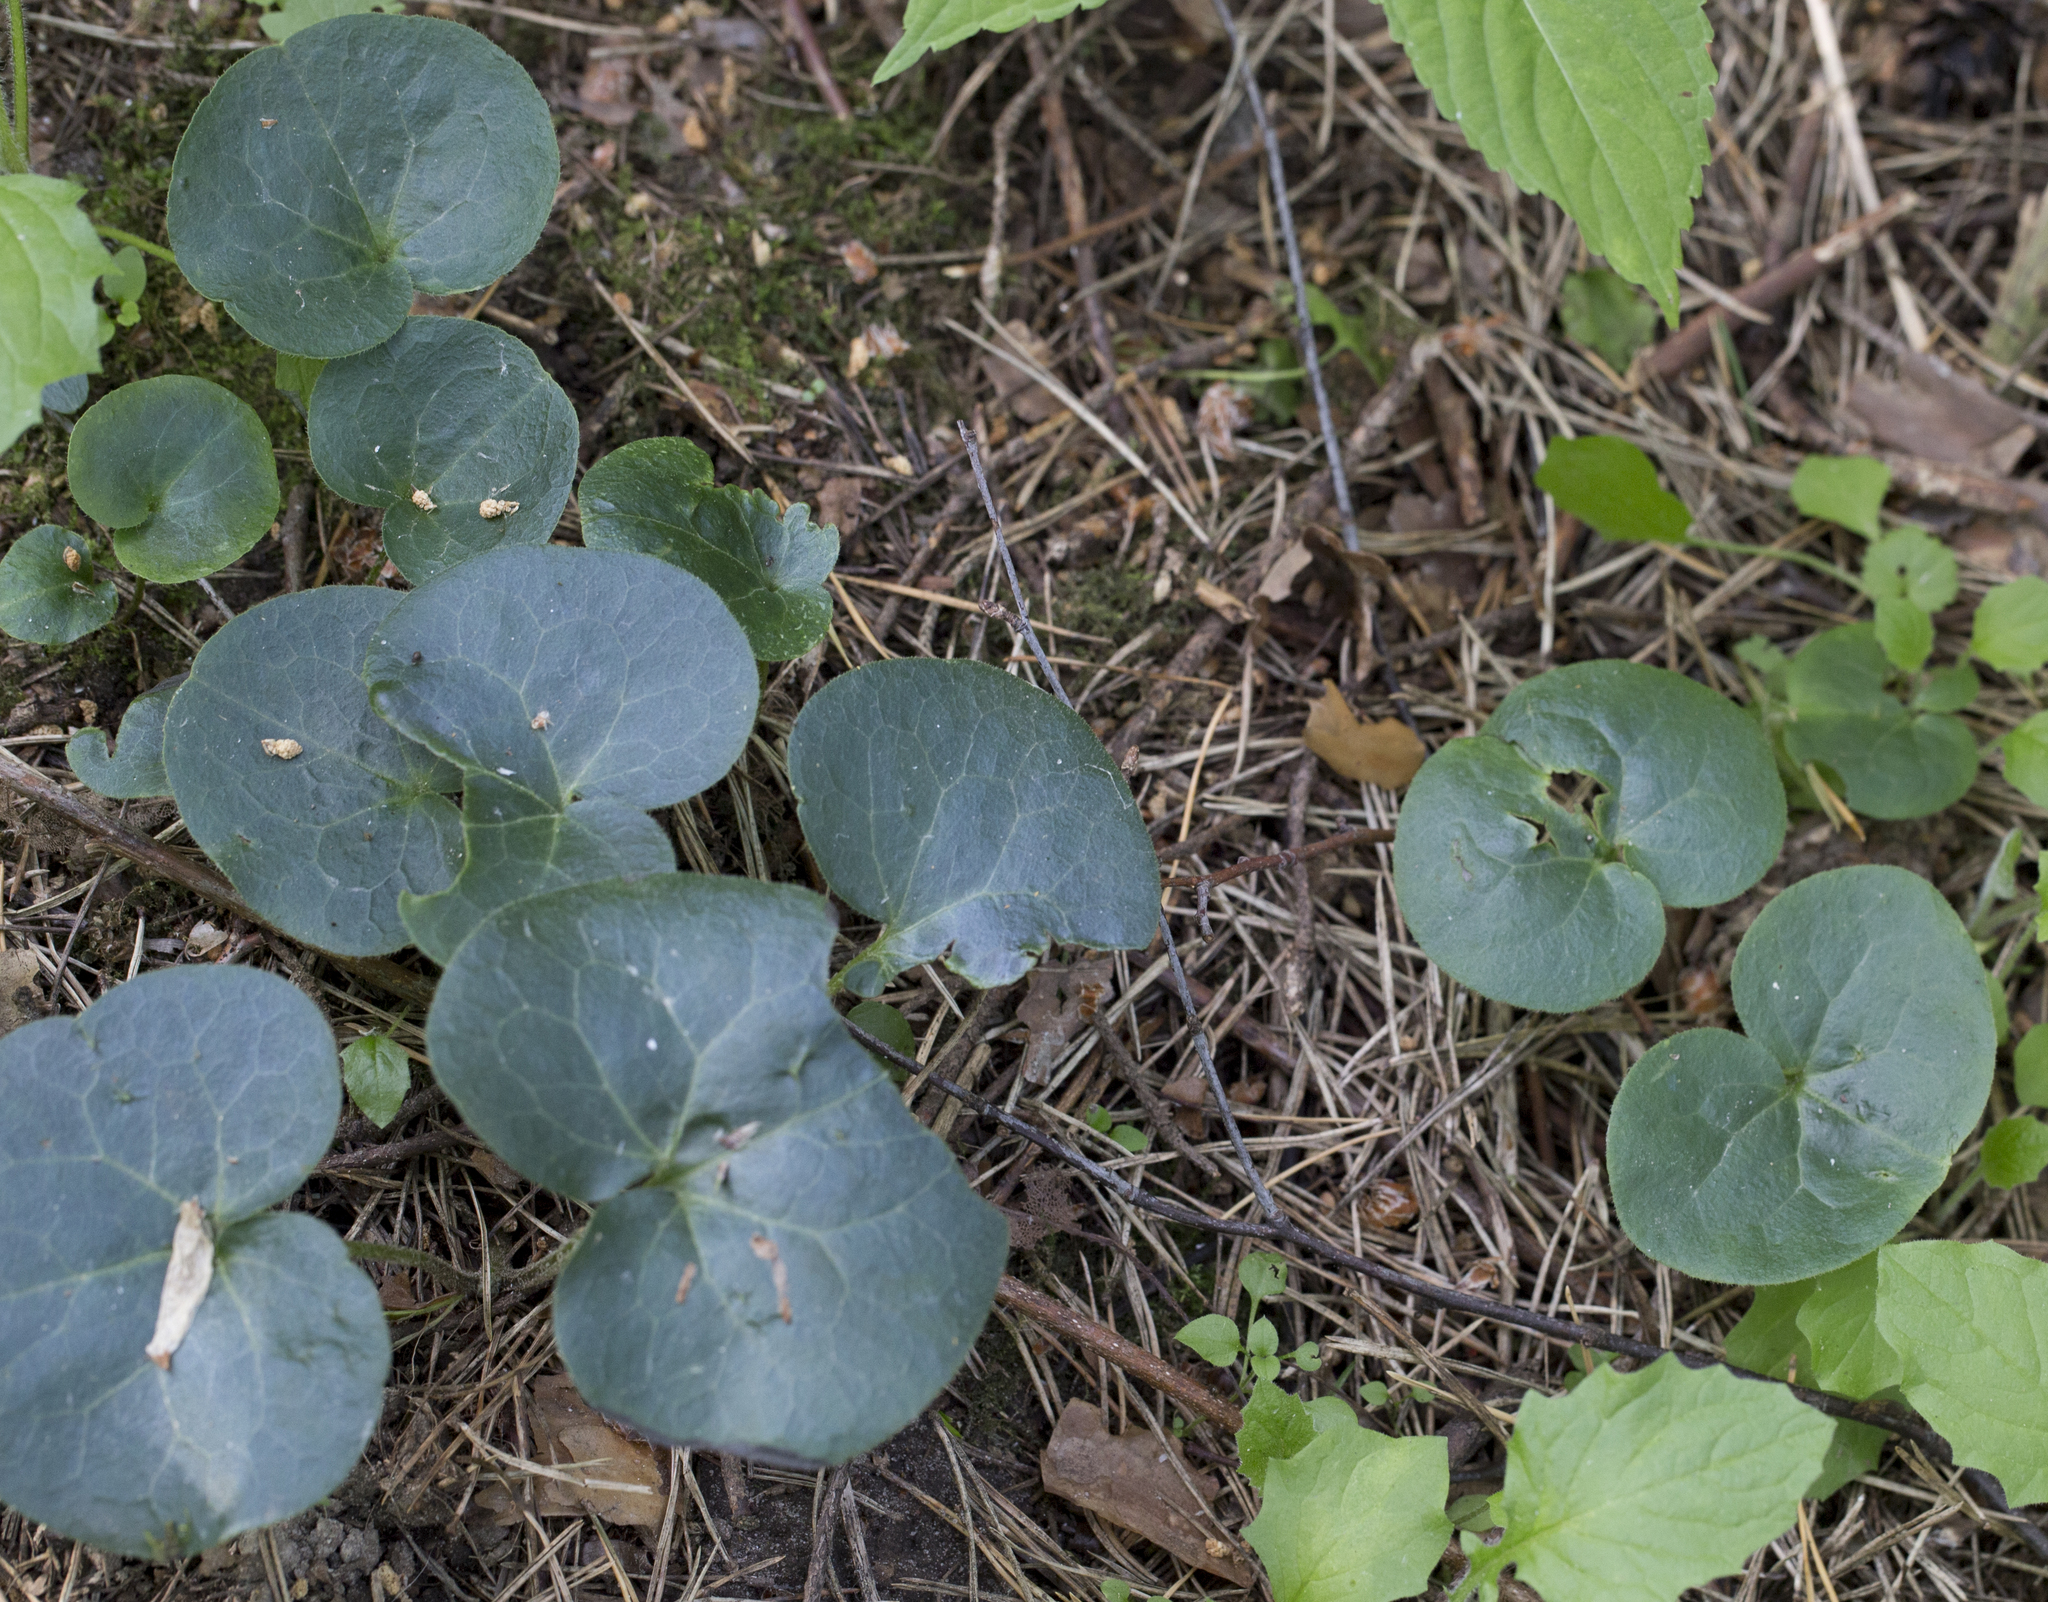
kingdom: Plantae
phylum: Tracheophyta
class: Magnoliopsida
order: Piperales
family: Aristolochiaceae
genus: Asarum
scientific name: Asarum europaeum
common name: Asarabacca
